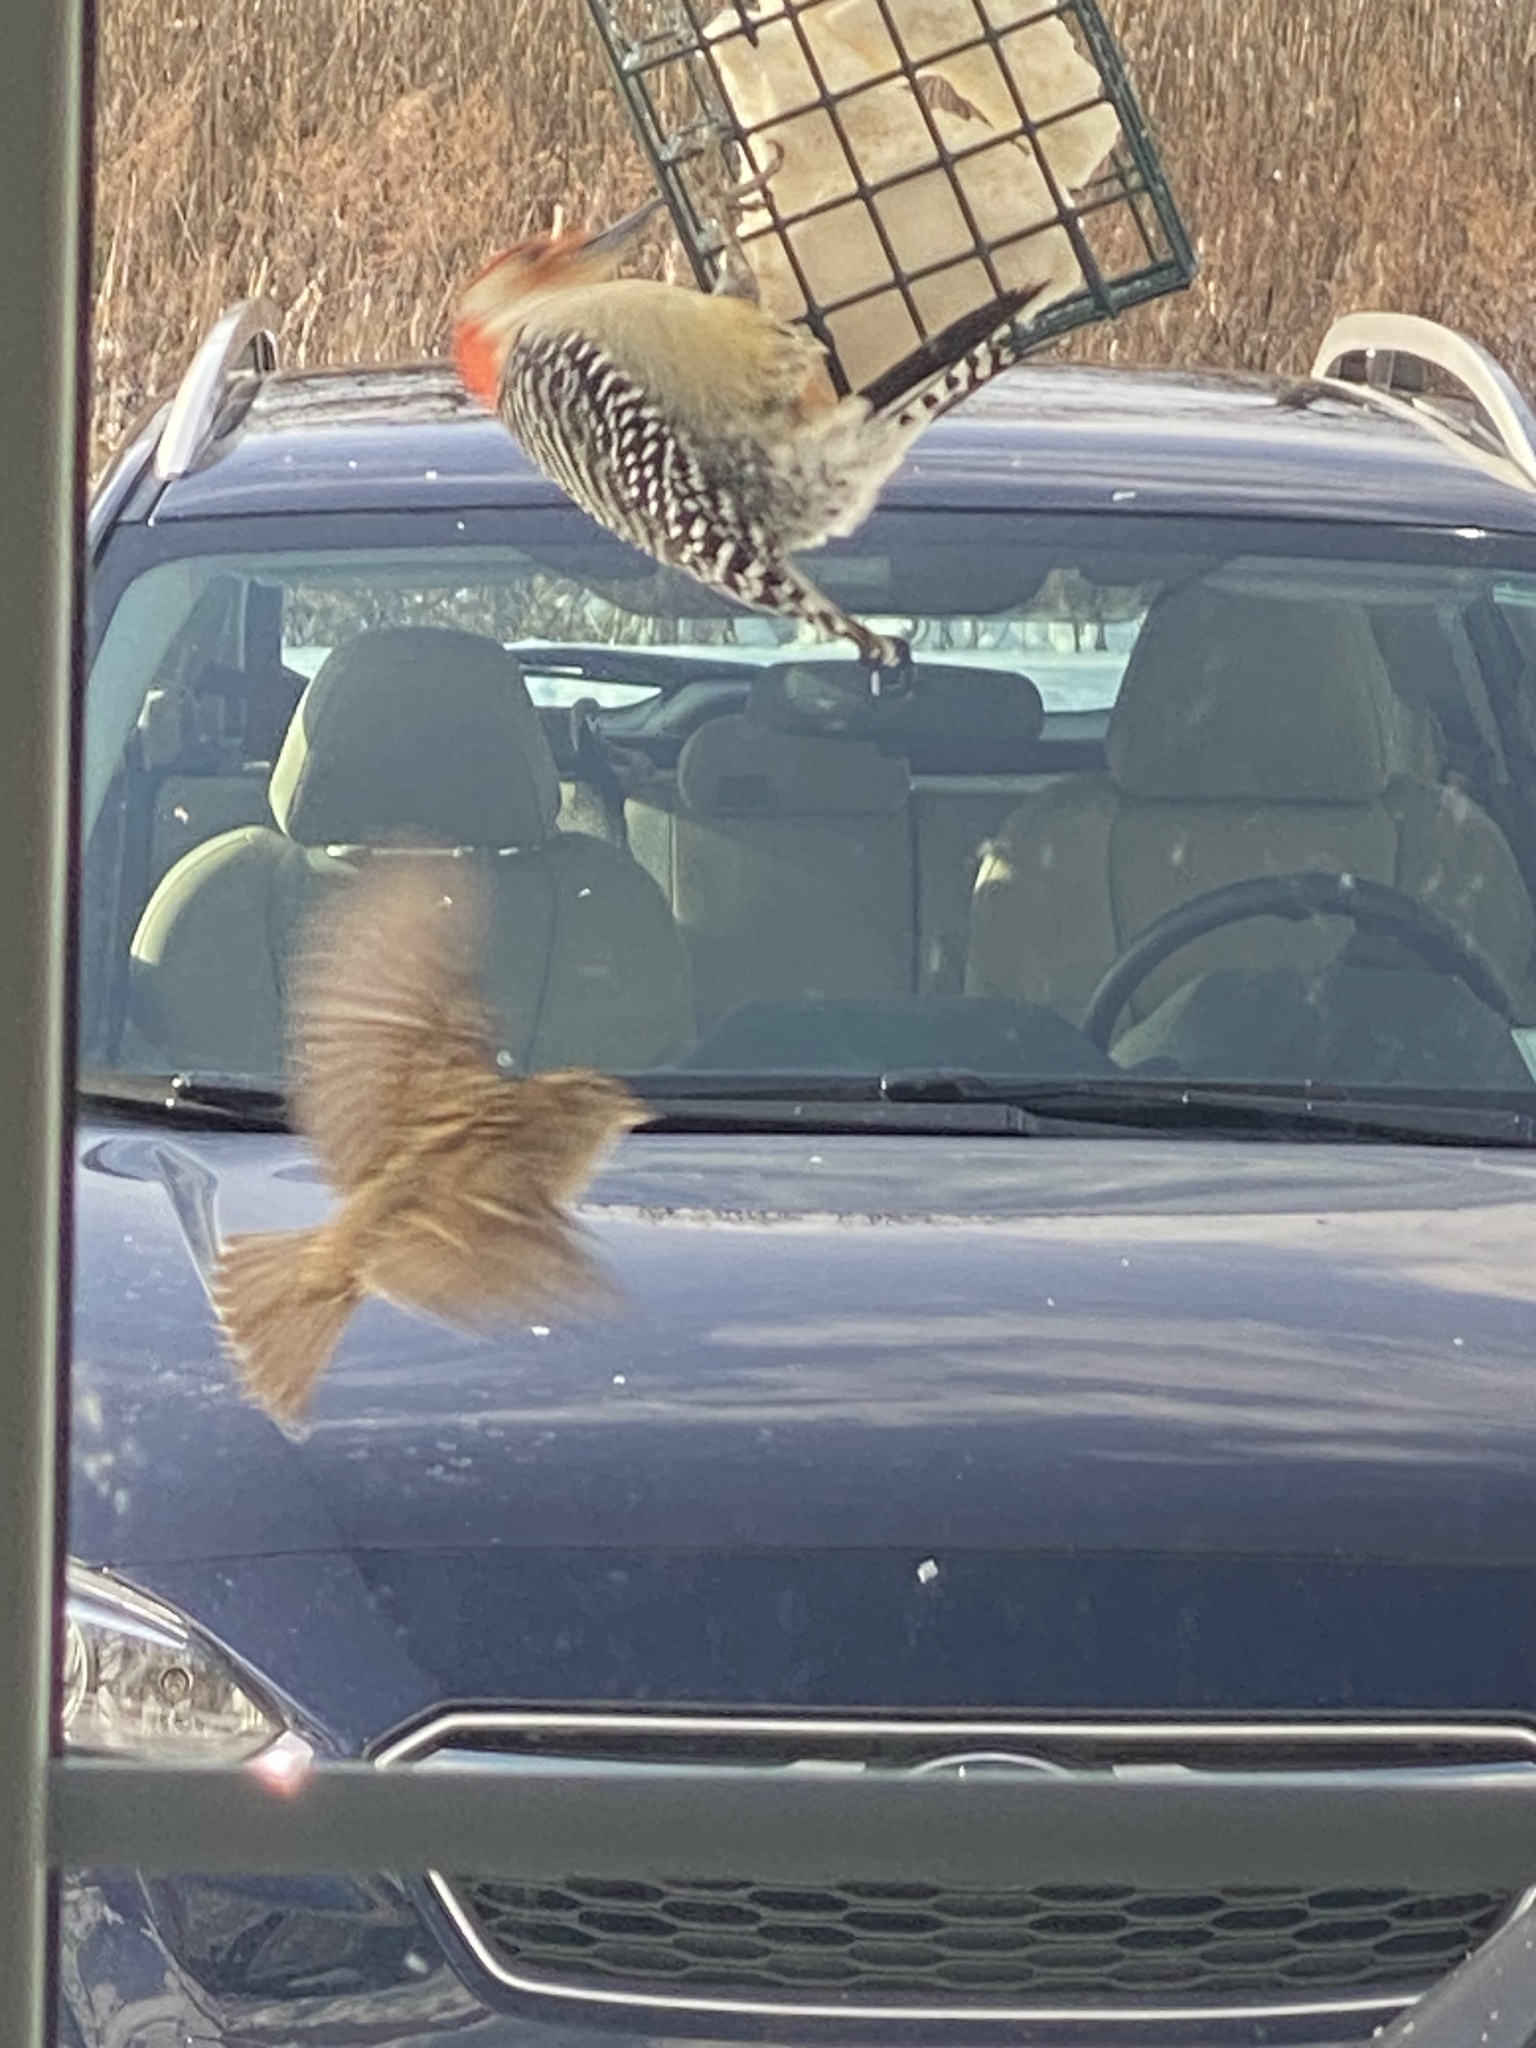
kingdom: Animalia
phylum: Chordata
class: Aves
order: Passeriformes
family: Passeridae
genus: Passer
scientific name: Passer domesticus
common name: House sparrow
